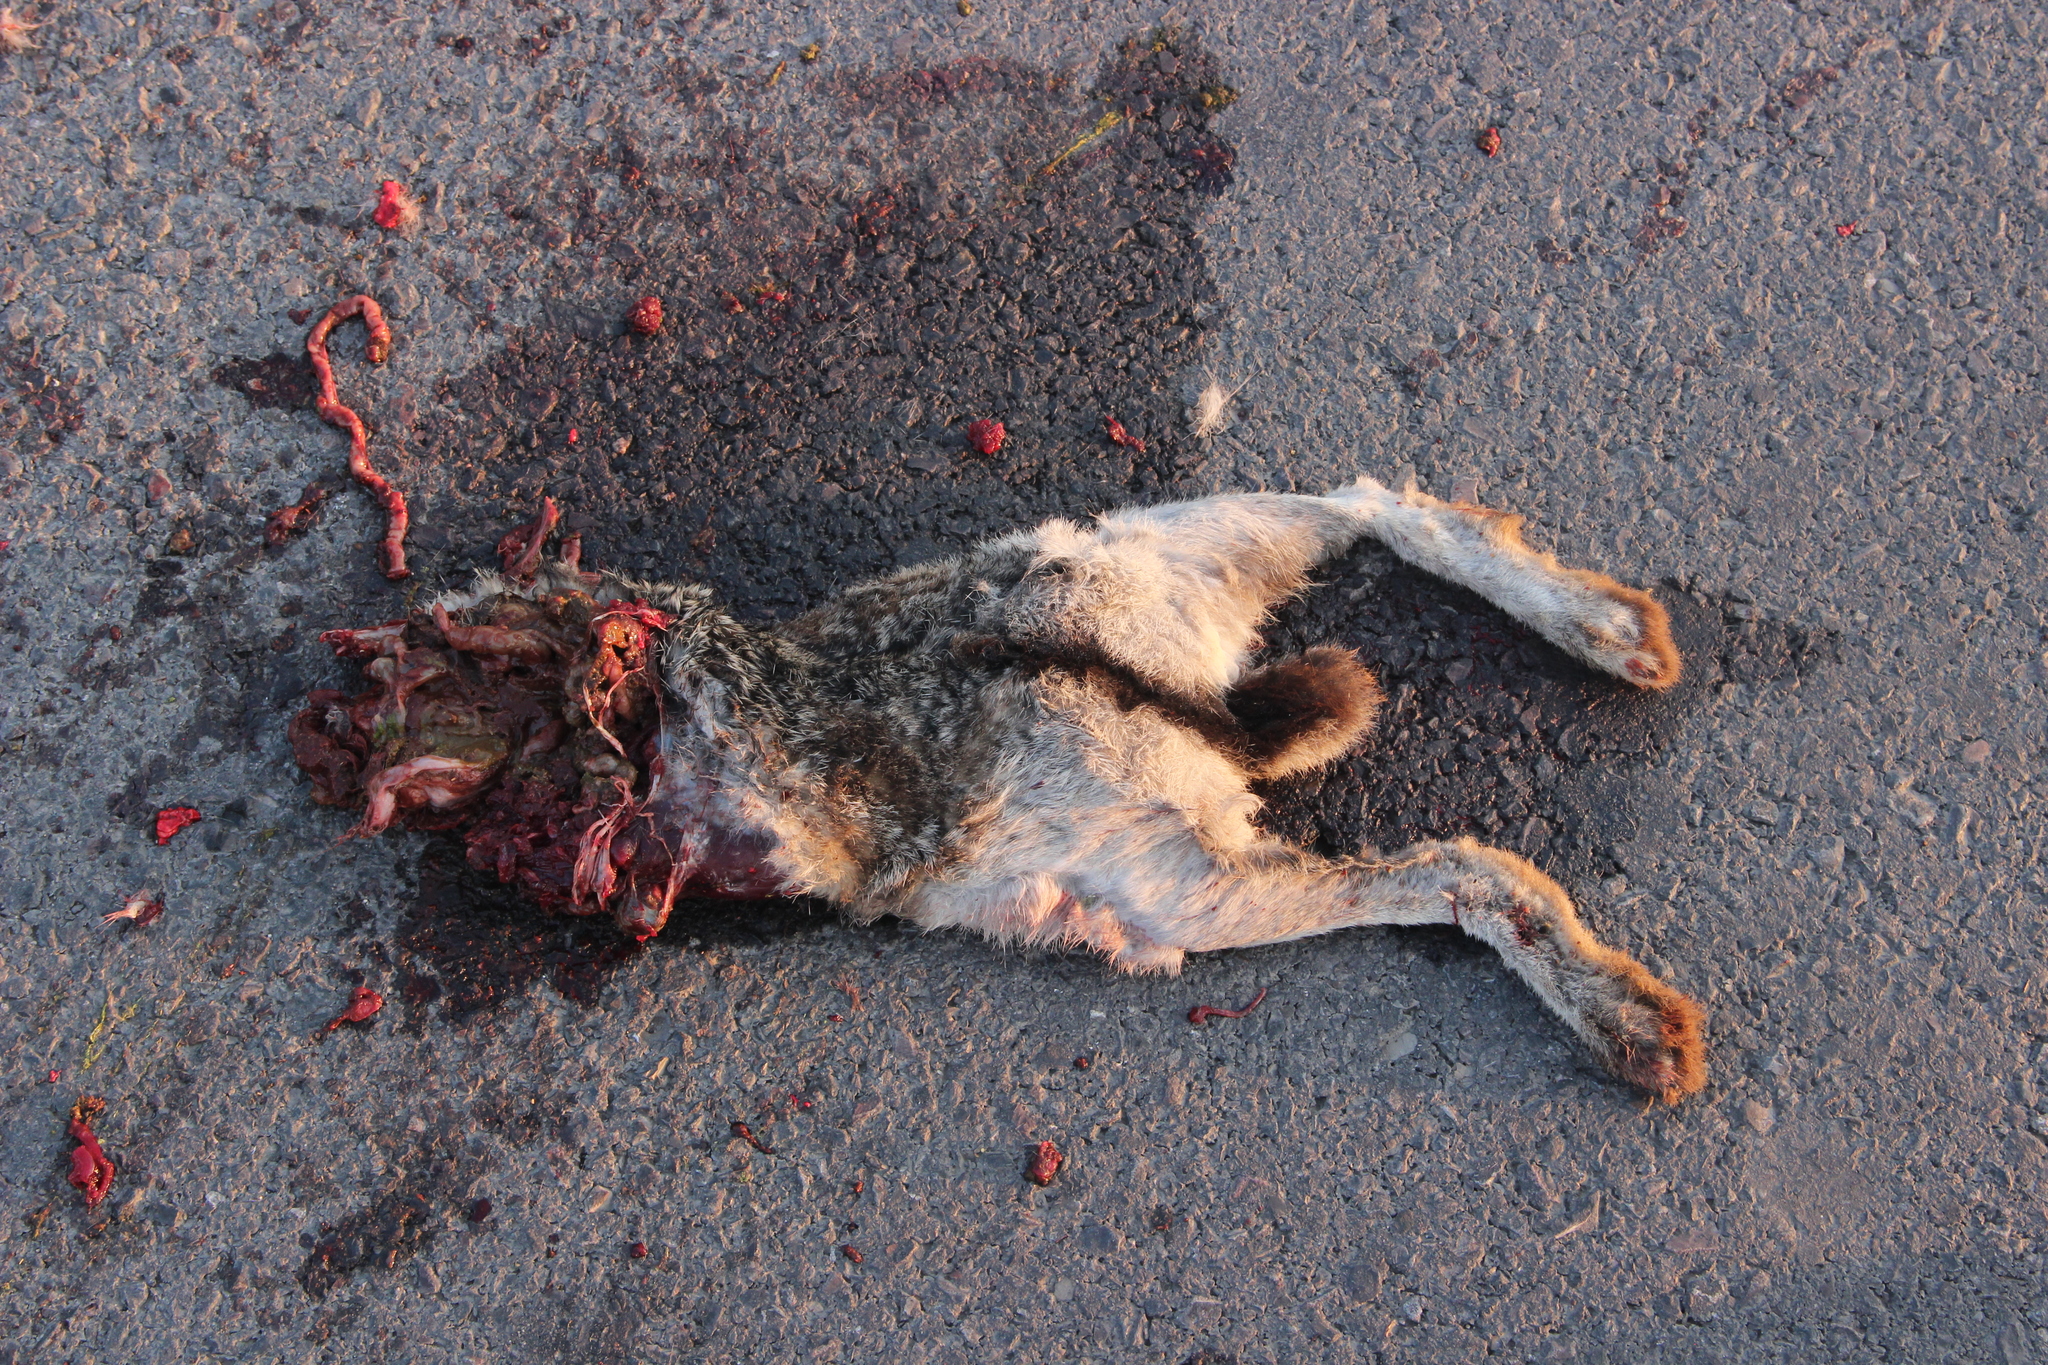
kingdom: Animalia
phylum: Chordata
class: Mammalia
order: Lagomorpha
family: Leporidae
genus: Lepus
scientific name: Lepus californicus
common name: Black-tailed jackrabbit
